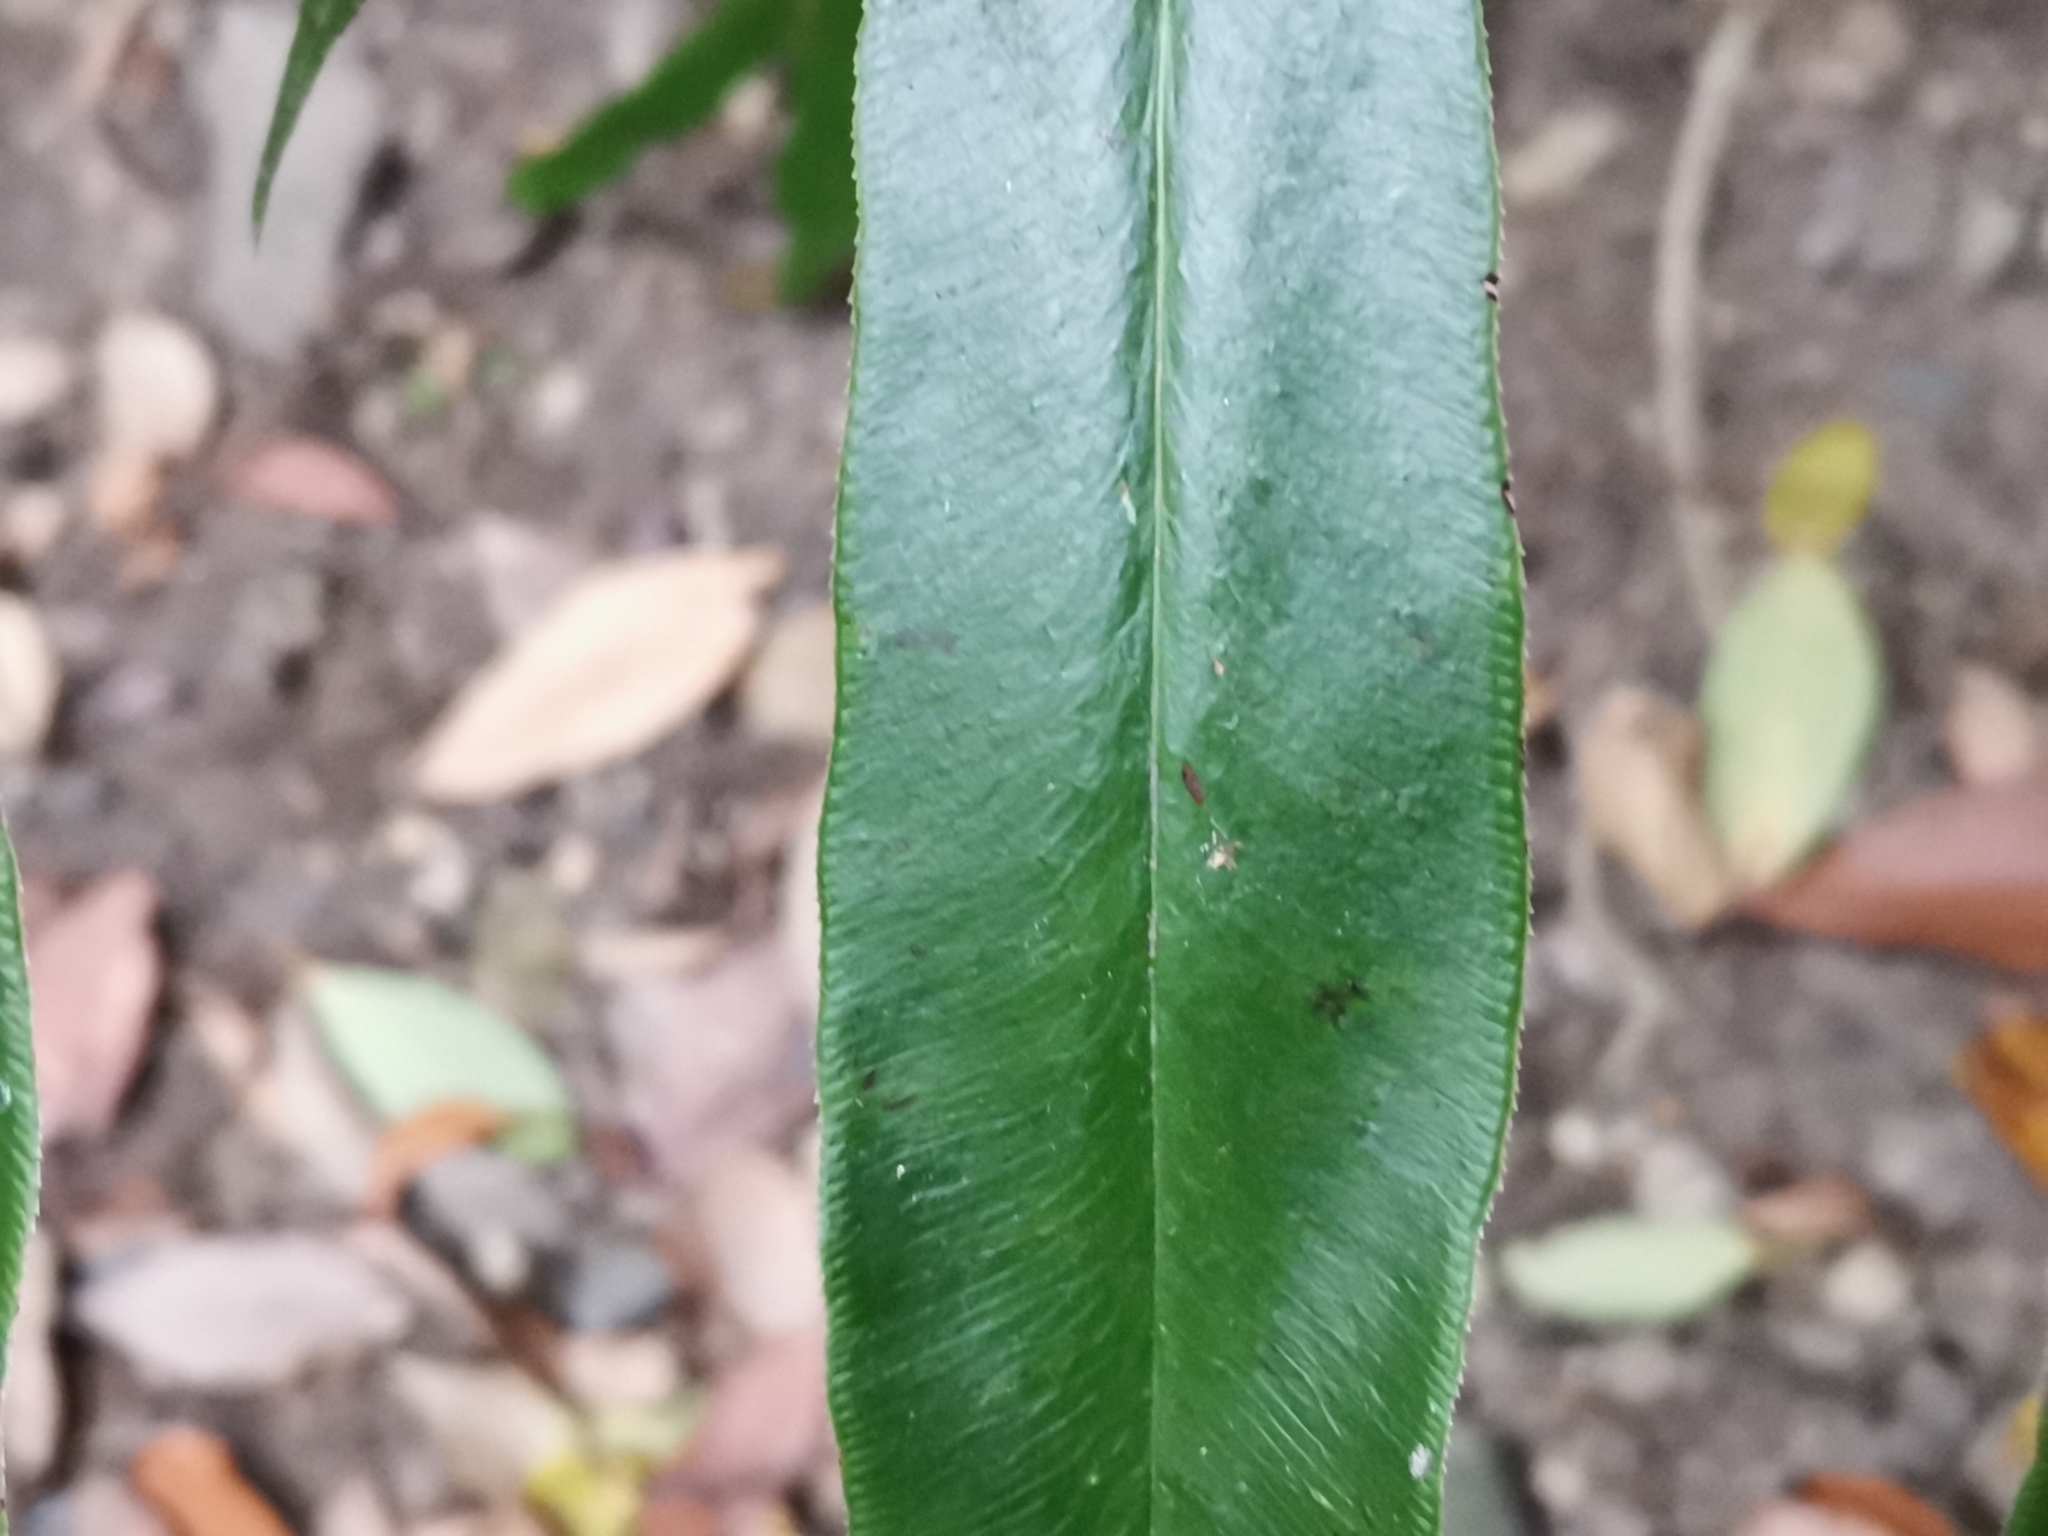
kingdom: Plantae
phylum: Tracheophyta
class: Polypodiopsida
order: Polypodiales
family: Pteridaceae
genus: Coniogramme
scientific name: Coniogramme japonica
